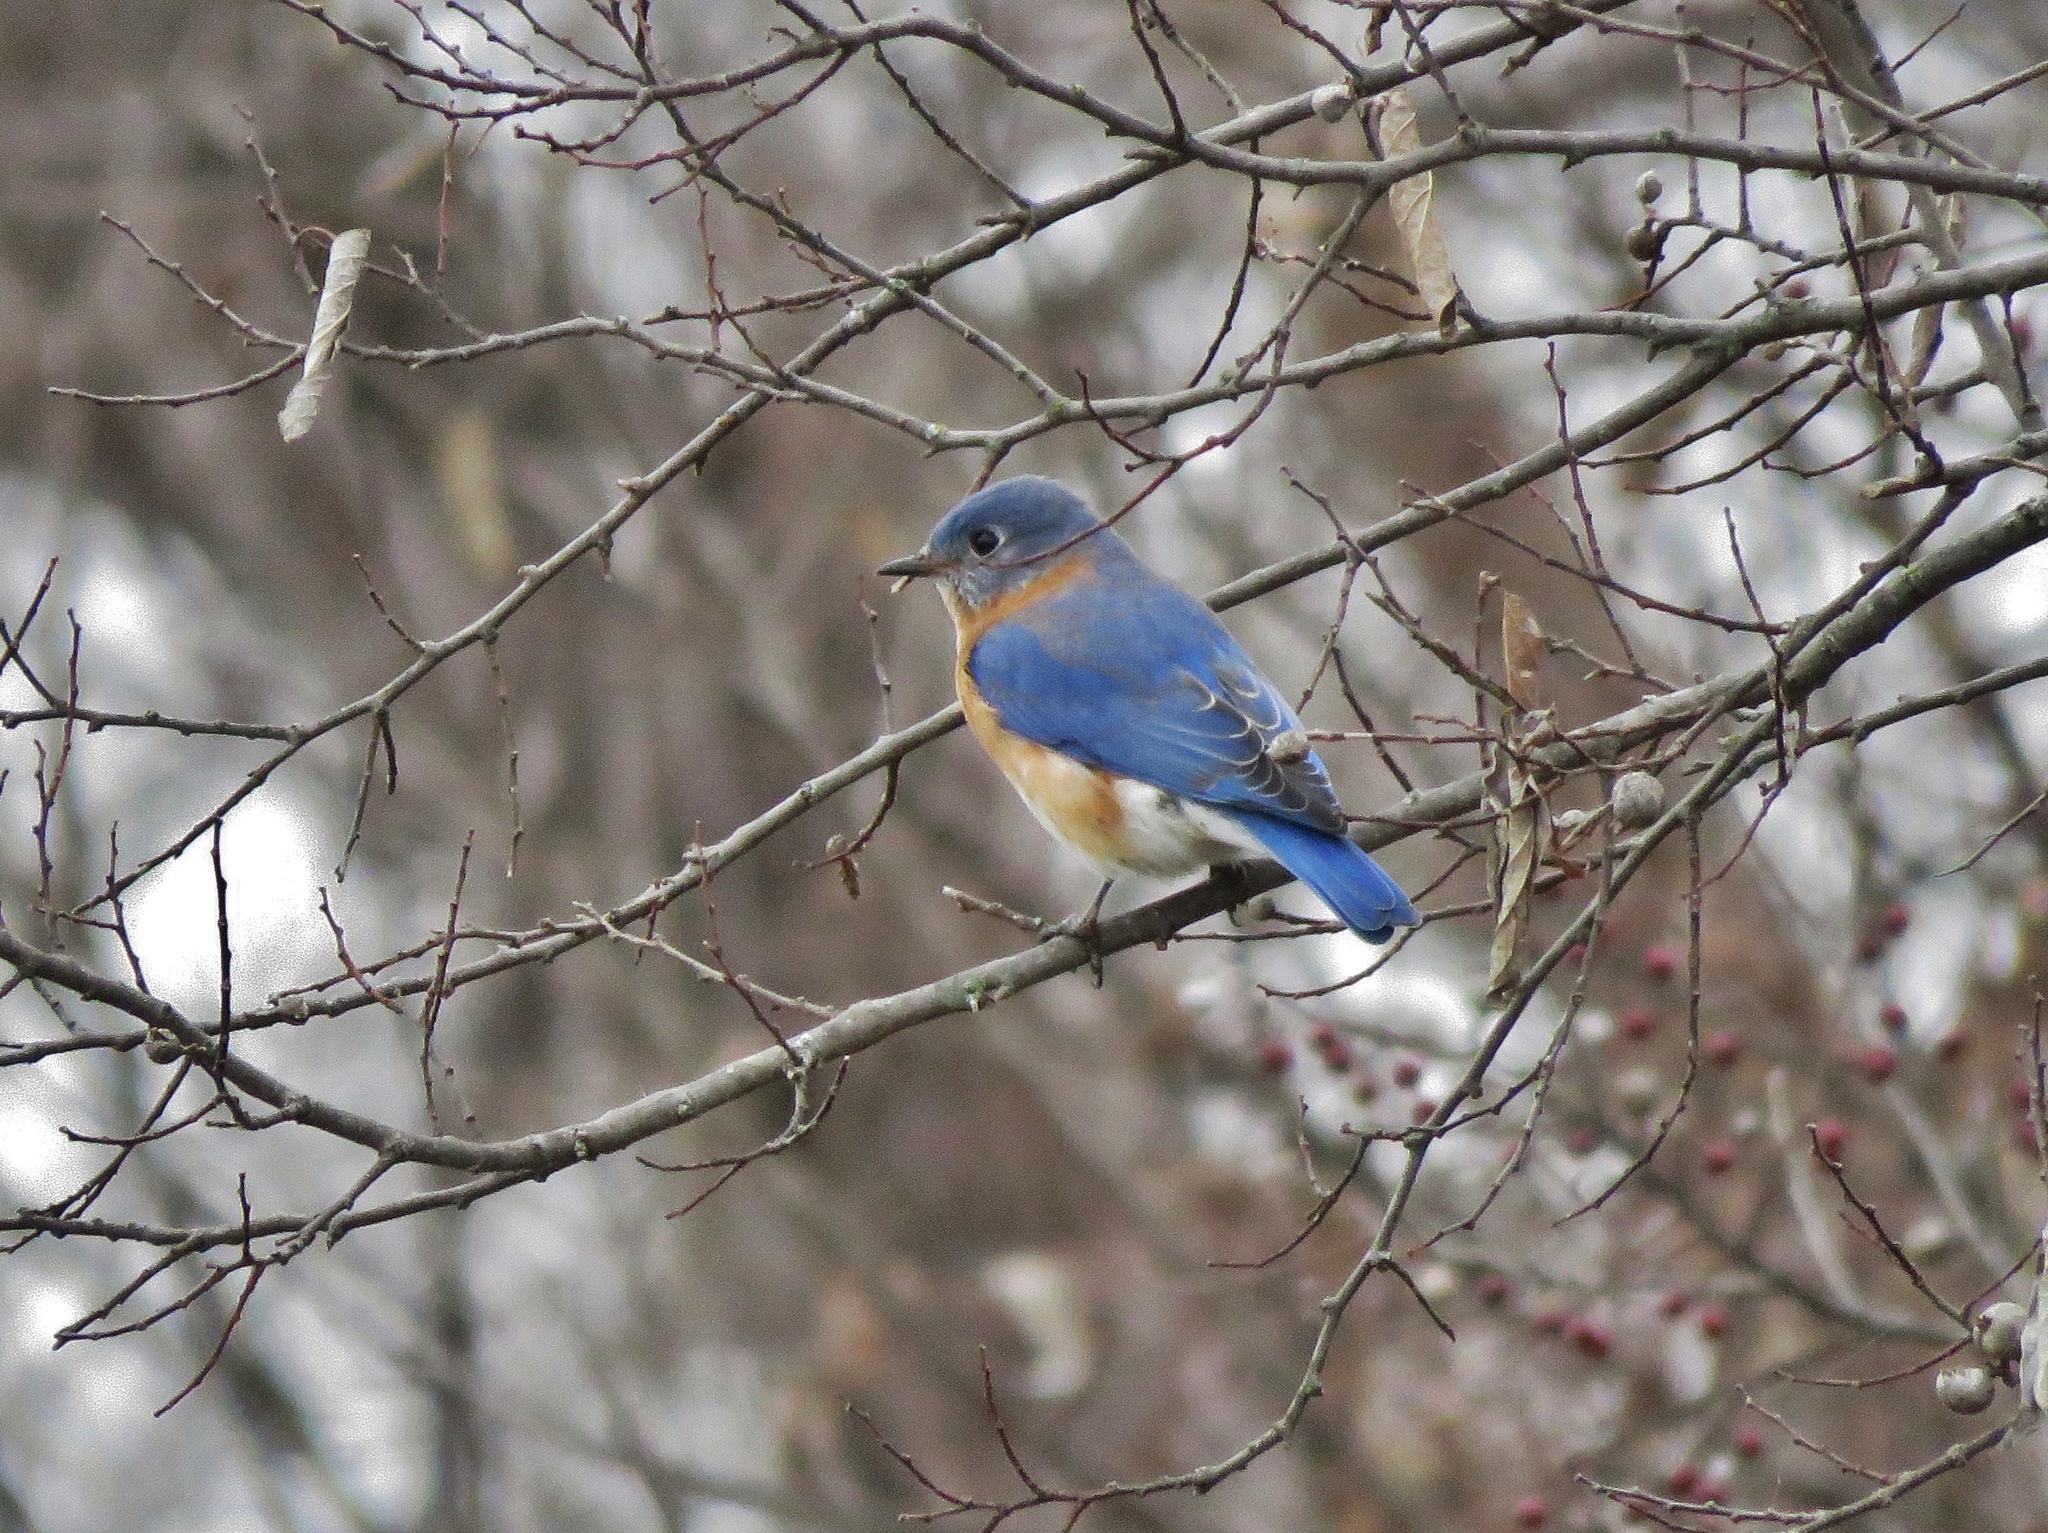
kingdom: Animalia
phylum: Chordata
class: Aves
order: Passeriformes
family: Turdidae
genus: Sialia
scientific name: Sialia sialis
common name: Eastern bluebird
